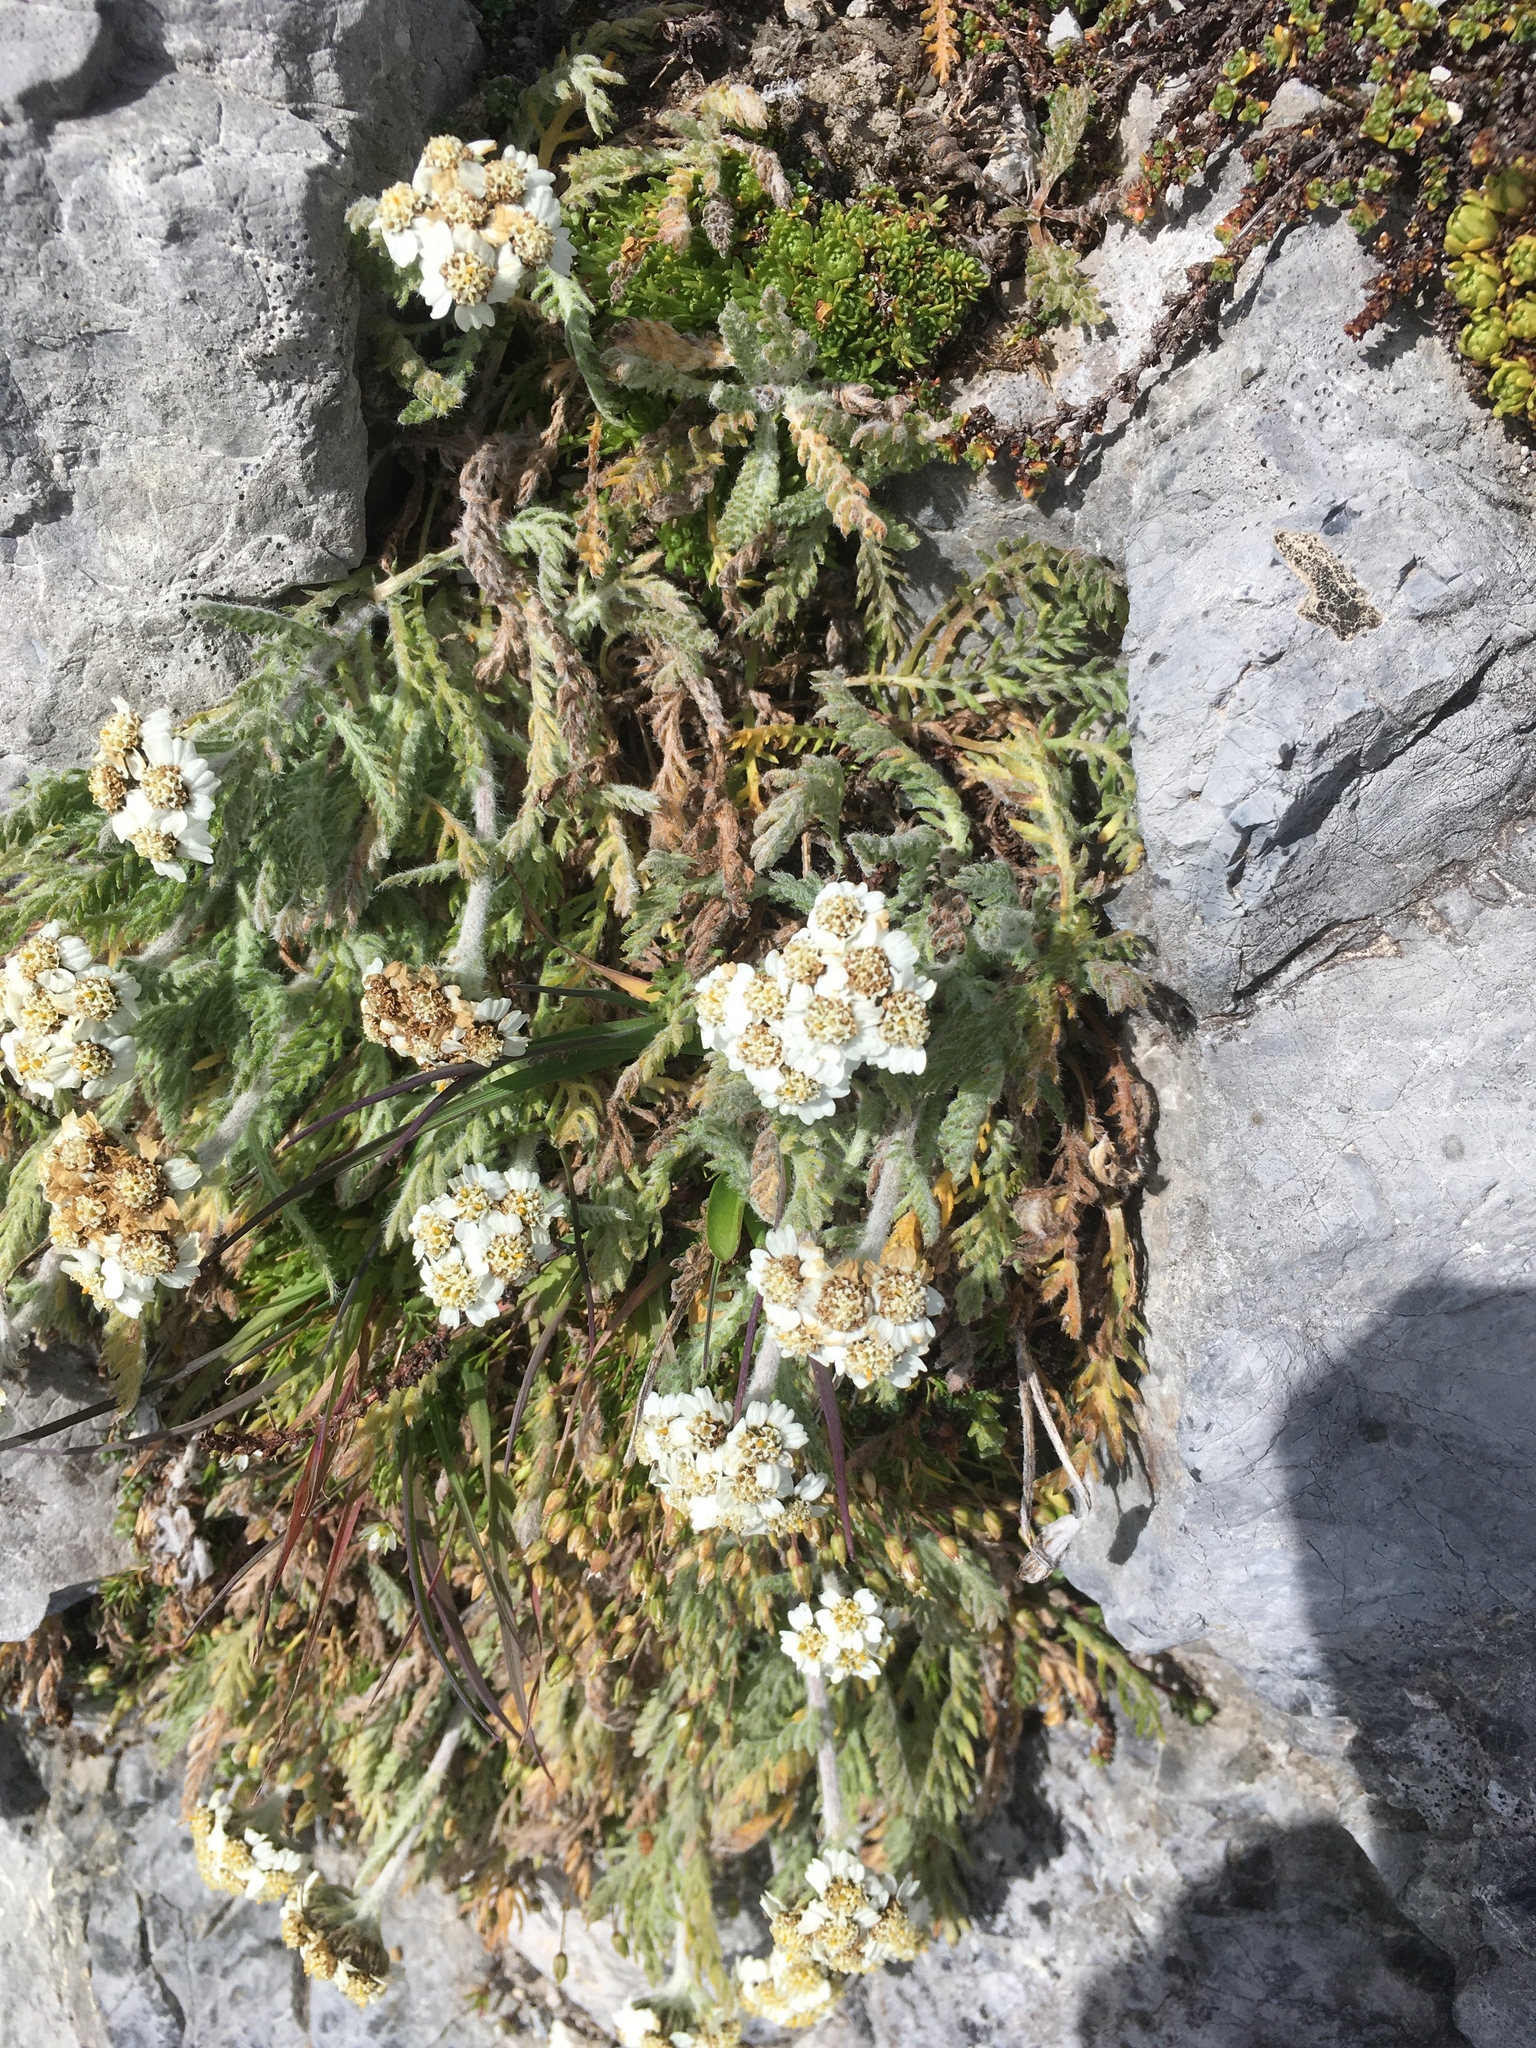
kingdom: Plantae
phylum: Tracheophyta
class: Magnoliopsida
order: Asterales
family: Asteraceae
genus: Achillea
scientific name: Achillea nana
